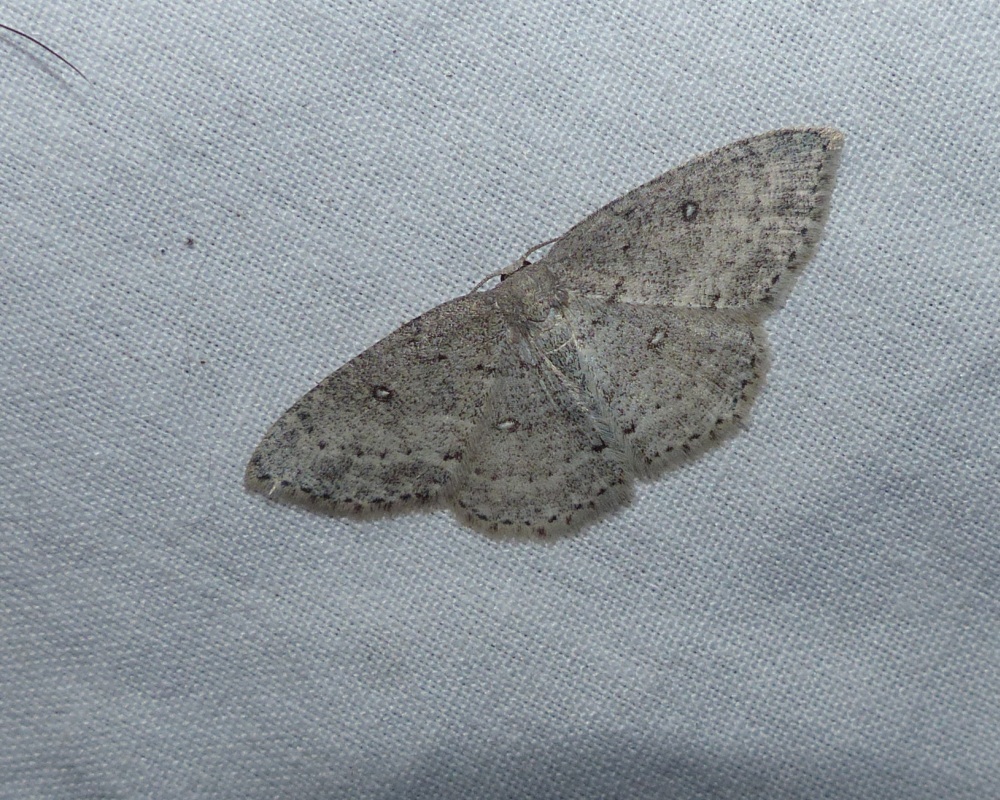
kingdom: Animalia
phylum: Arthropoda
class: Insecta
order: Lepidoptera
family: Geometridae
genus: Cyclophora
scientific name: Cyclophora pendulinaria
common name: Sweet fern geometer
